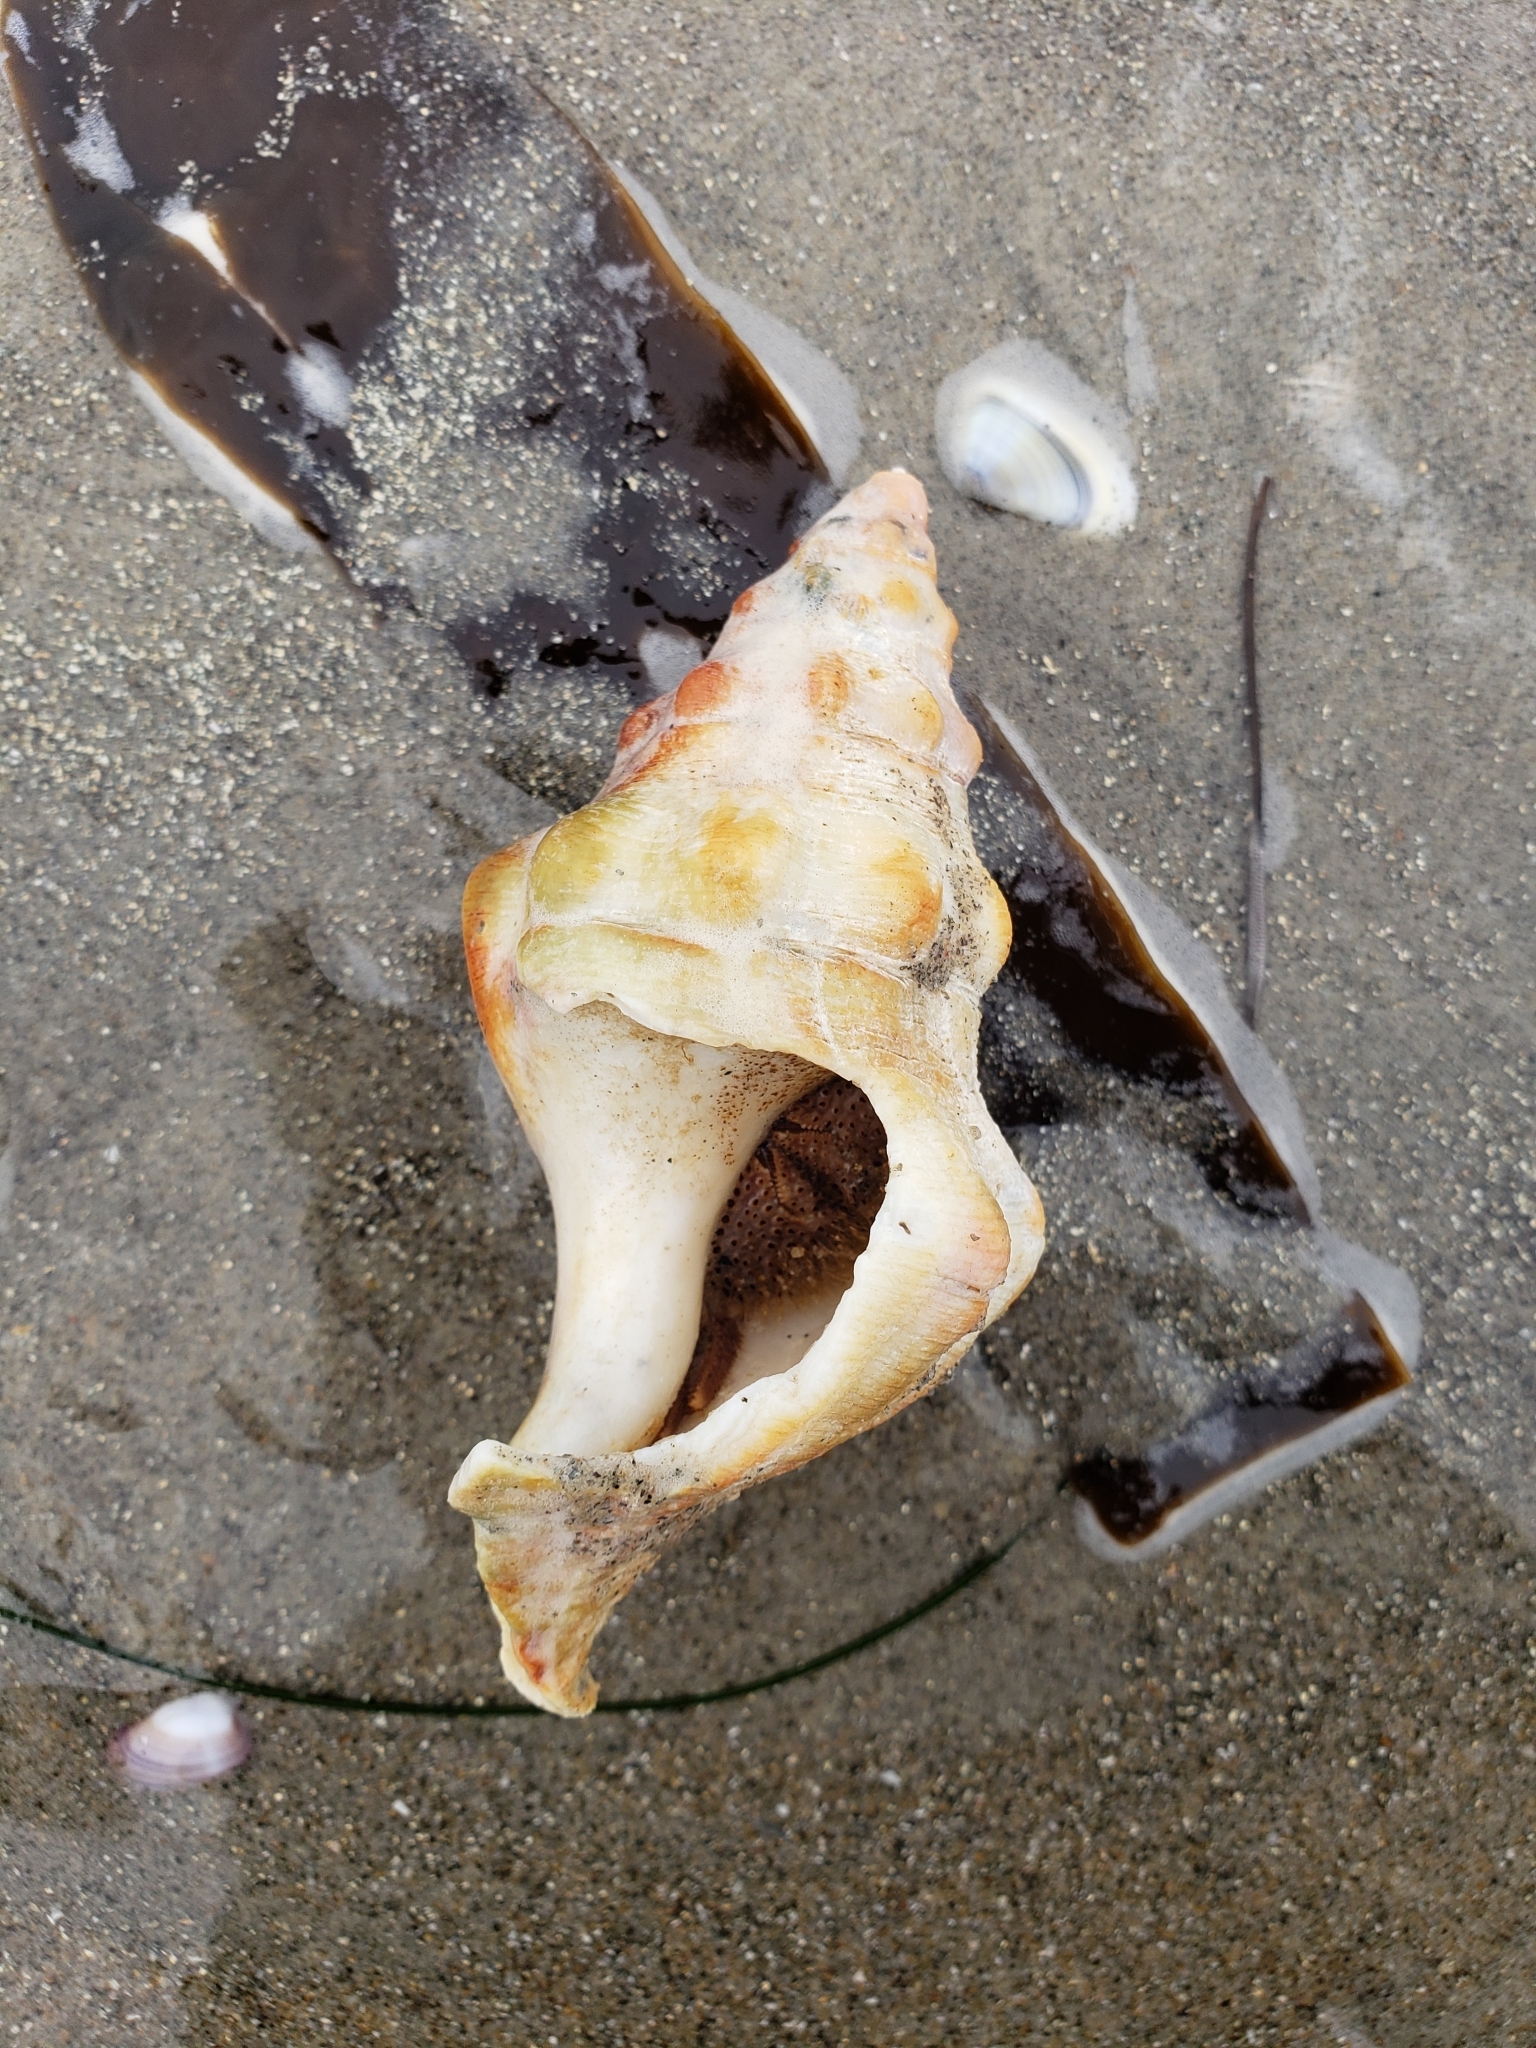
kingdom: Animalia
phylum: Arthropoda
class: Malacostraca
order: Decapoda
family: Diogenidae
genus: Paguristes
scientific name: Paguristes bakeri
